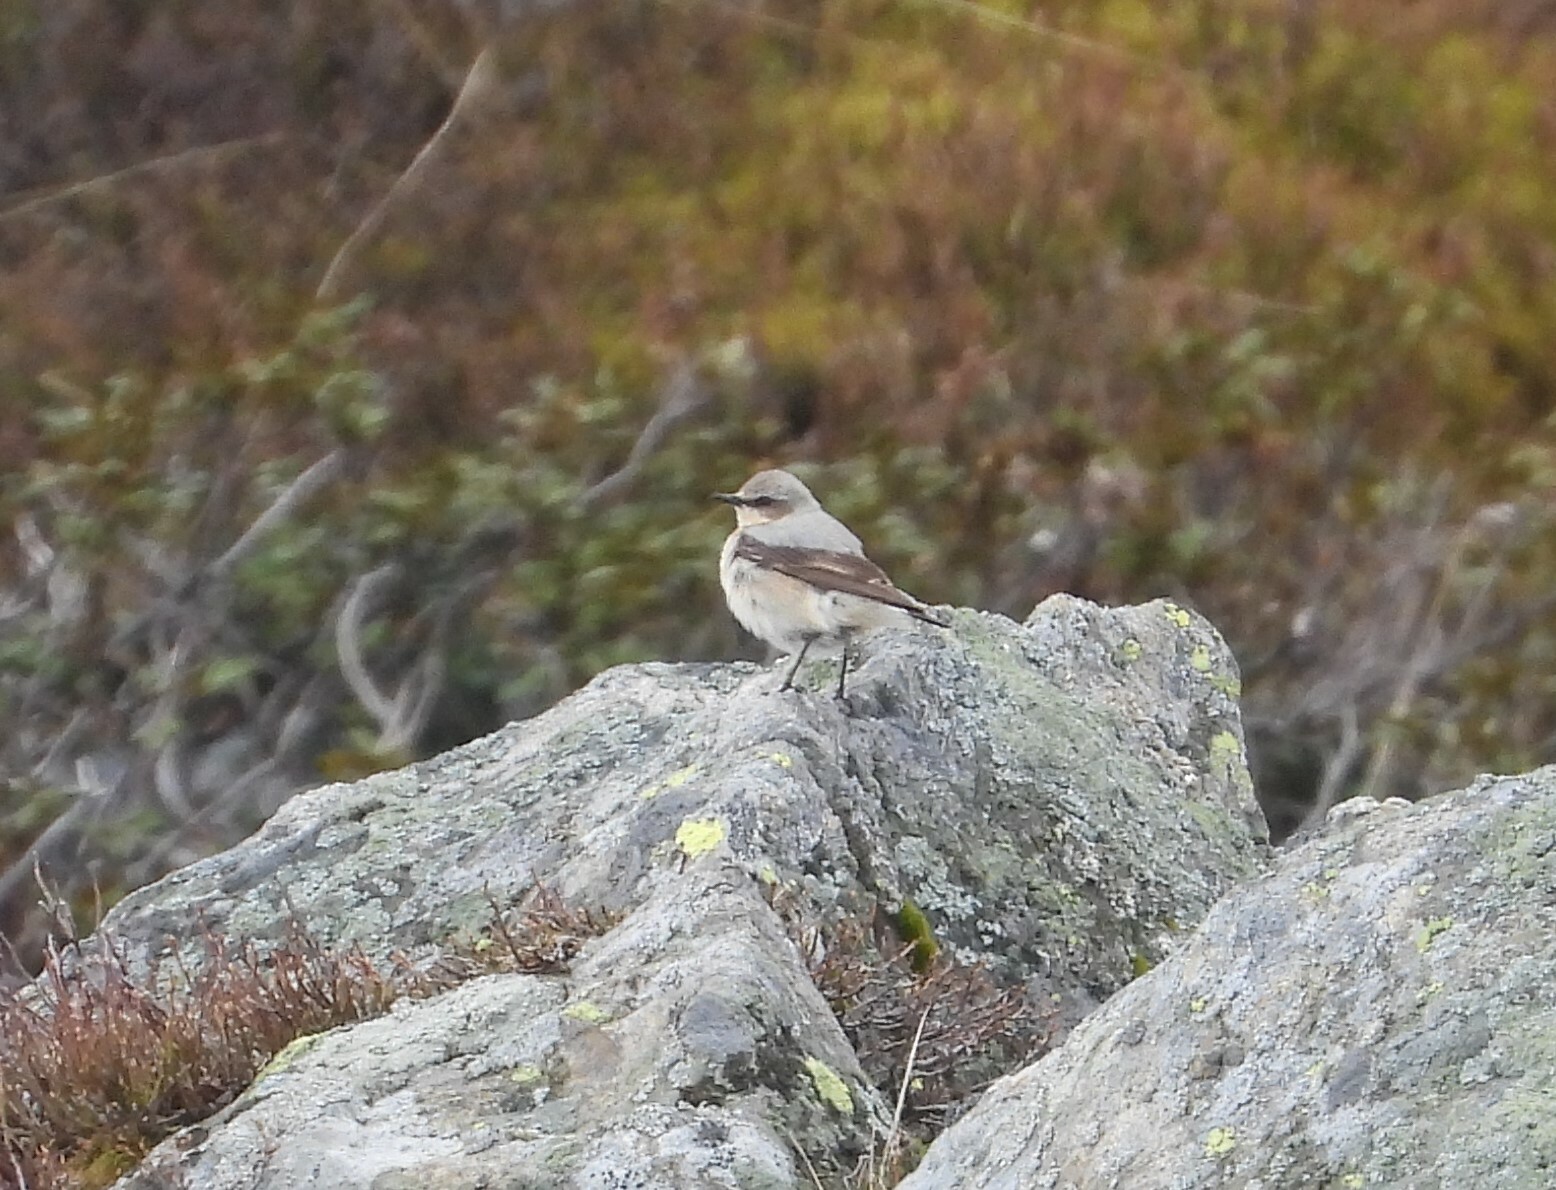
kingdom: Animalia
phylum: Chordata
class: Aves
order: Passeriformes
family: Muscicapidae
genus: Oenanthe
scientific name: Oenanthe oenanthe
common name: Northern wheatear
